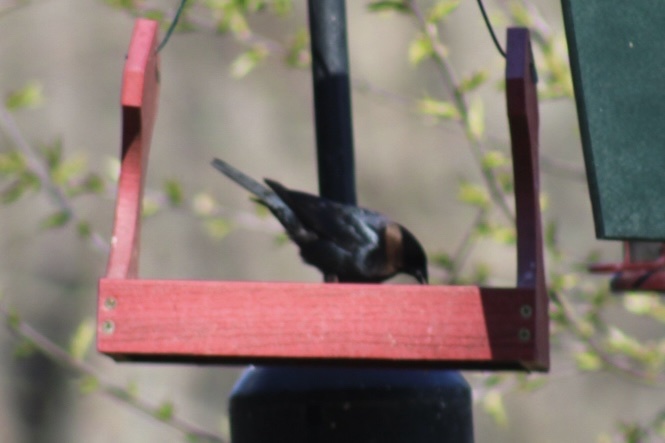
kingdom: Animalia
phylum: Chordata
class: Aves
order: Passeriformes
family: Icteridae
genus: Molothrus
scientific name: Molothrus ater
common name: Brown-headed cowbird
